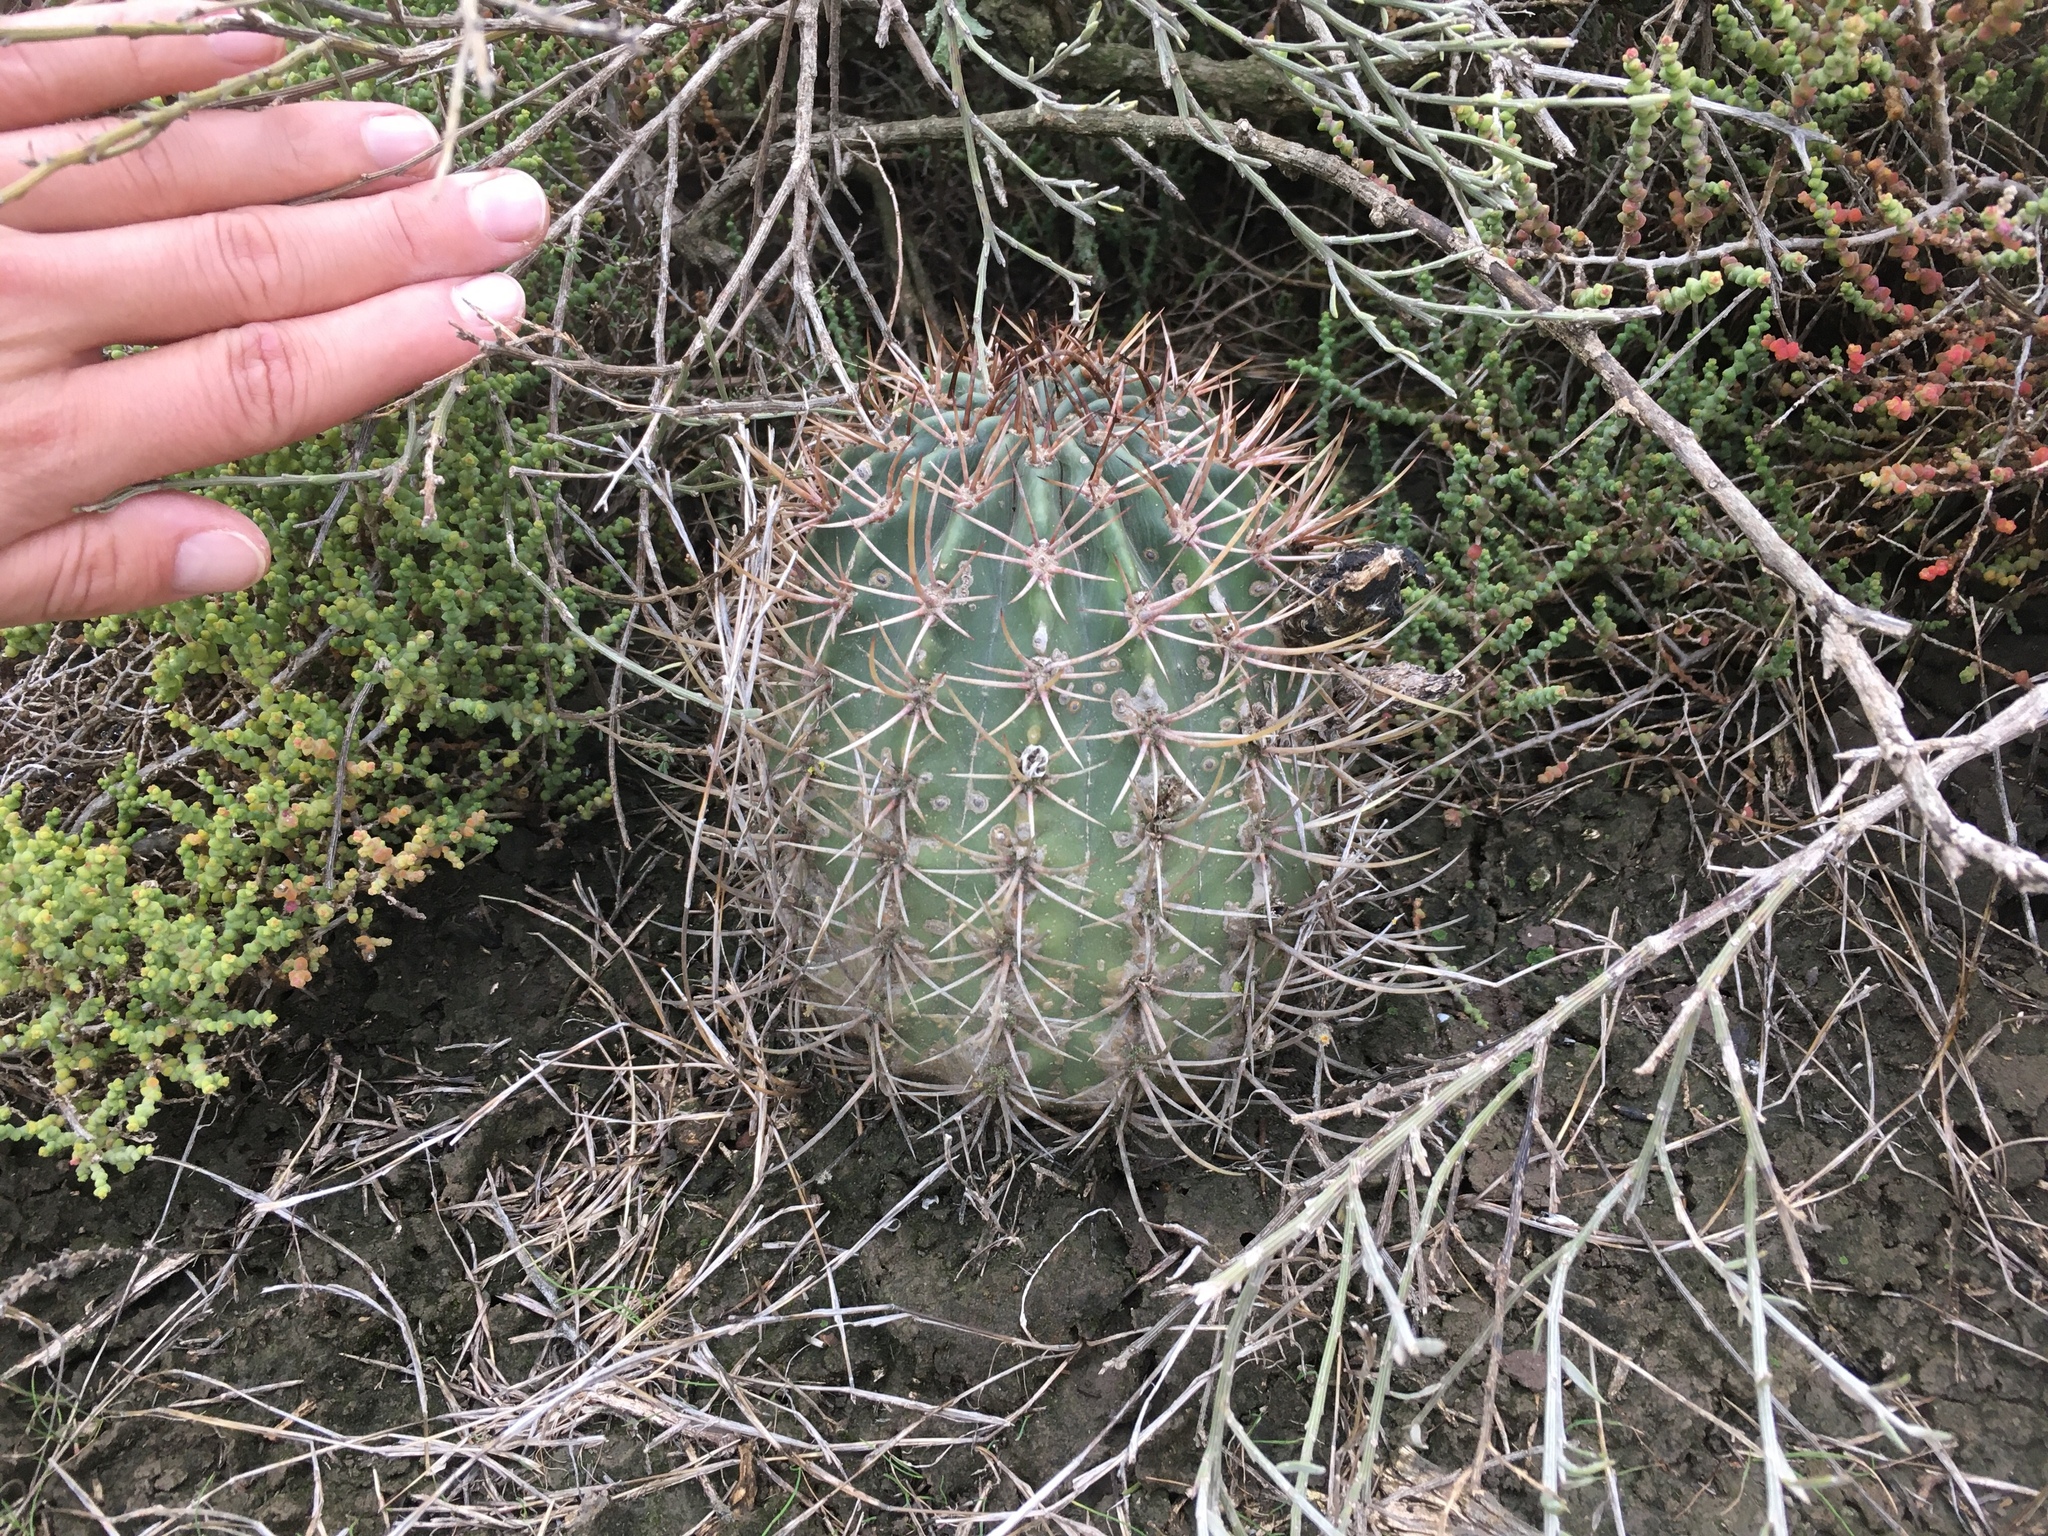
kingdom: Plantae
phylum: Tracheophyta
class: Magnoliopsida
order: Caryophyllales
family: Cactaceae
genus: Acanthocalycium
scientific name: Acanthocalycium leucanthum
